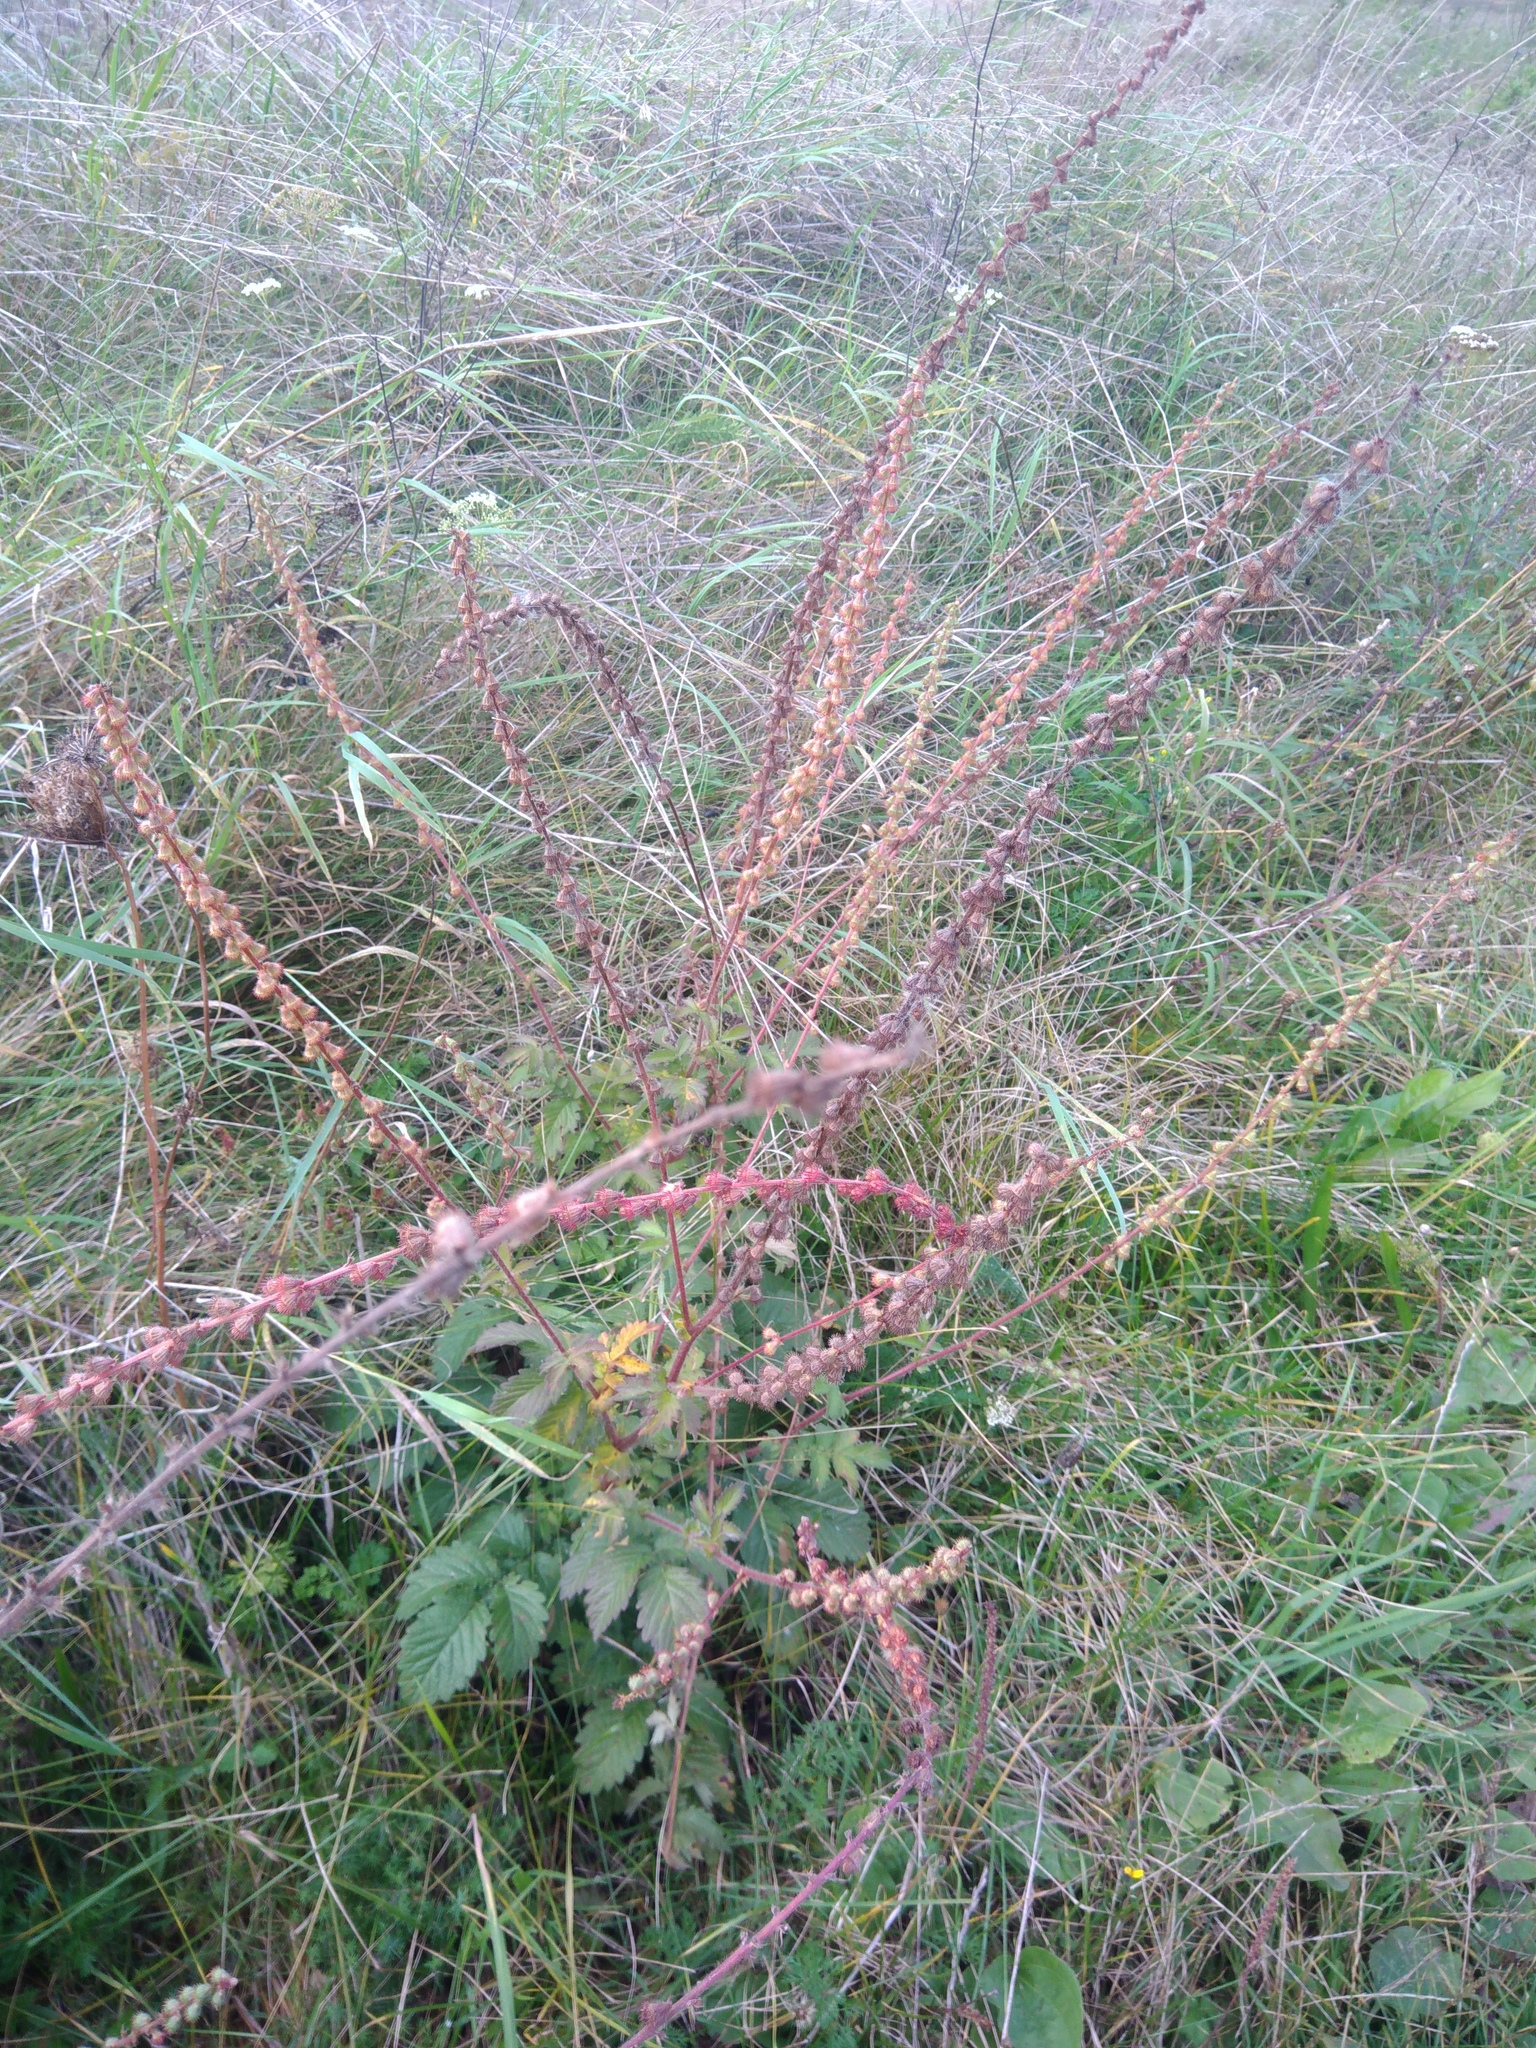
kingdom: Plantae
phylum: Tracheophyta
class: Magnoliopsida
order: Rosales
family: Rosaceae
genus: Agrimonia
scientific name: Agrimonia eupatoria
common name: Agrimony
